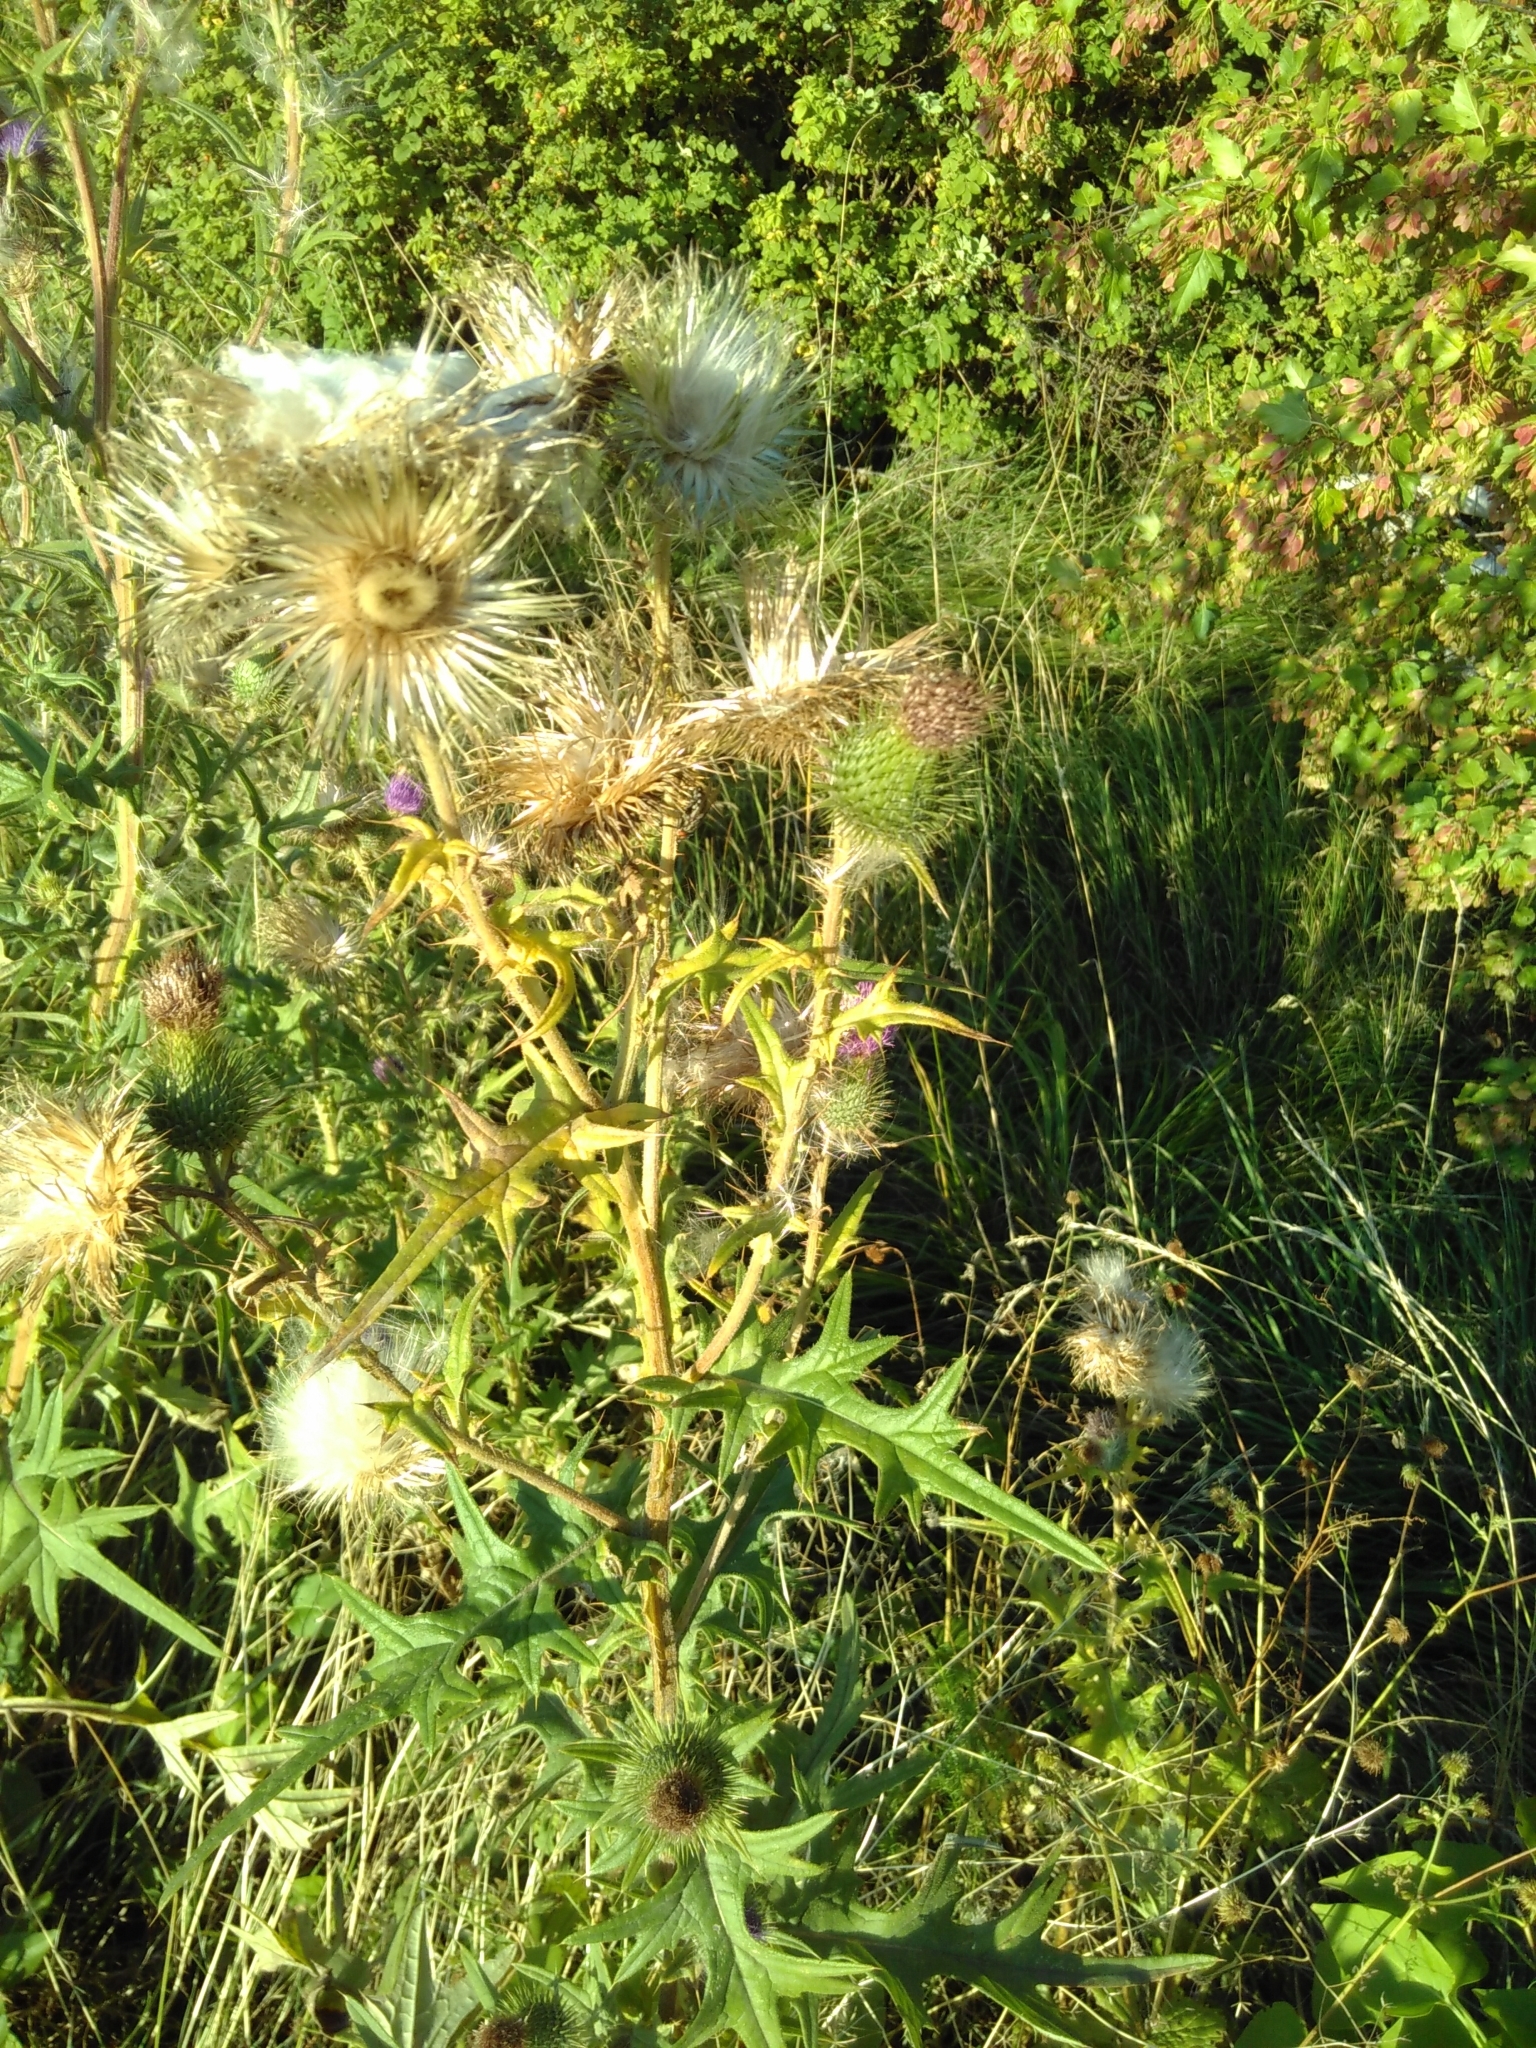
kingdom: Plantae
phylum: Tracheophyta
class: Magnoliopsida
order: Asterales
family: Asteraceae
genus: Cirsium
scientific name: Cirsium vulgare
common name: Bull thistle
